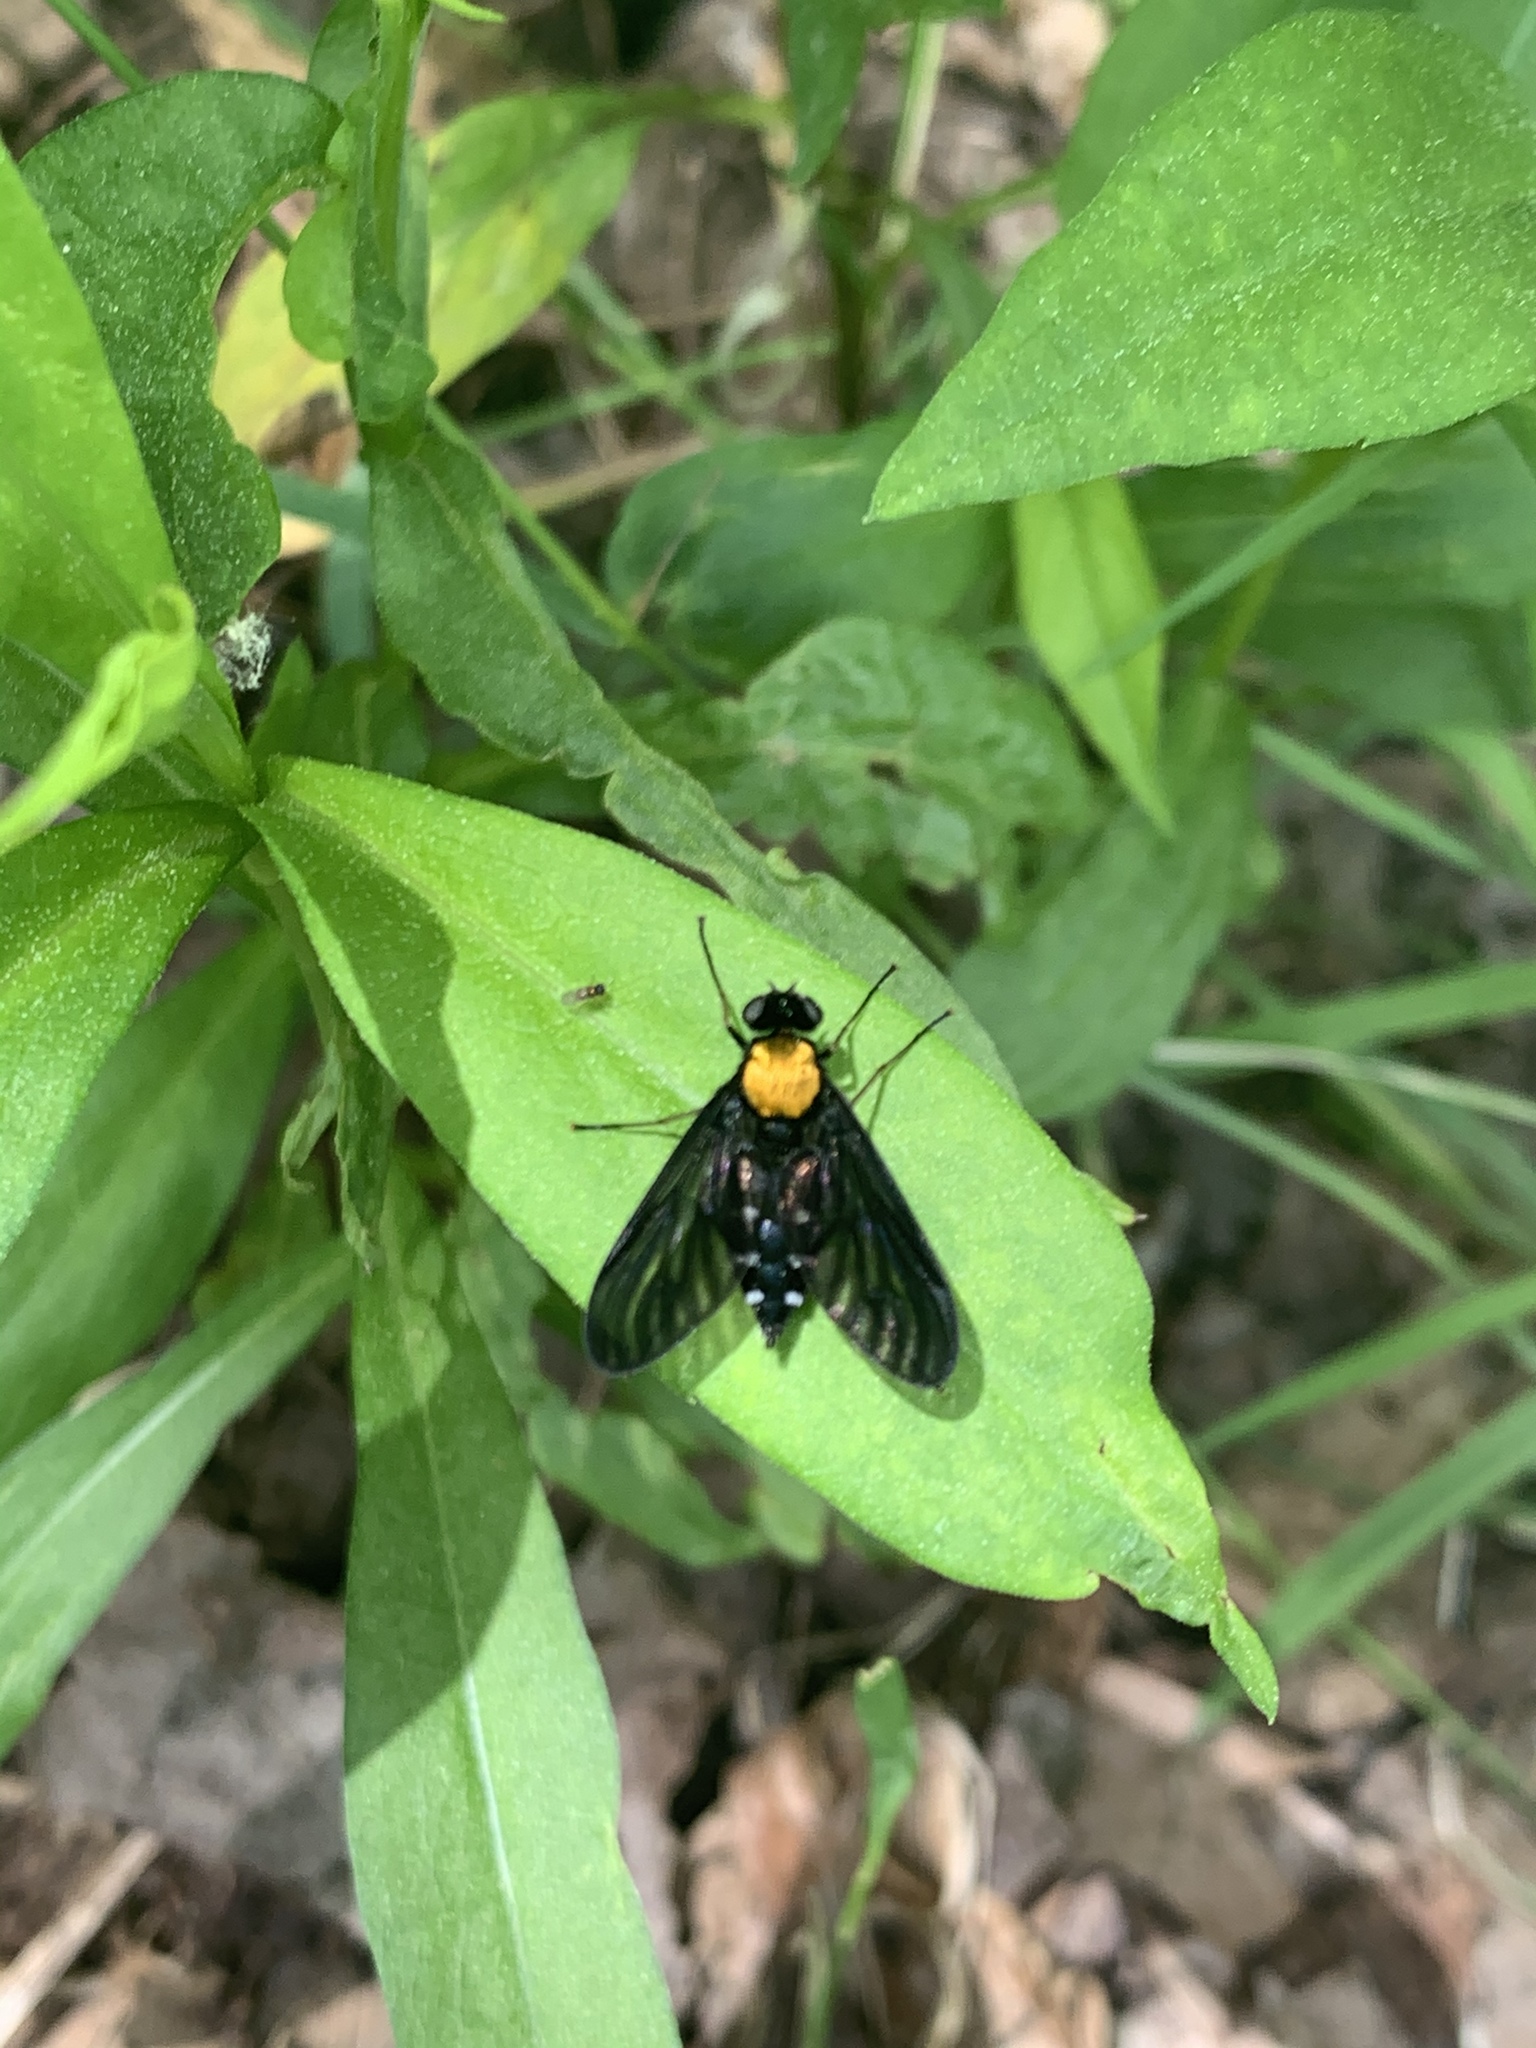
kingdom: Animalia
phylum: Arthropoda
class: Insecta
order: Diptera
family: Rhagionidae
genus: Chrysopilus
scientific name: Chrysopilus thoracicus
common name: Golden-backed snipe fly
